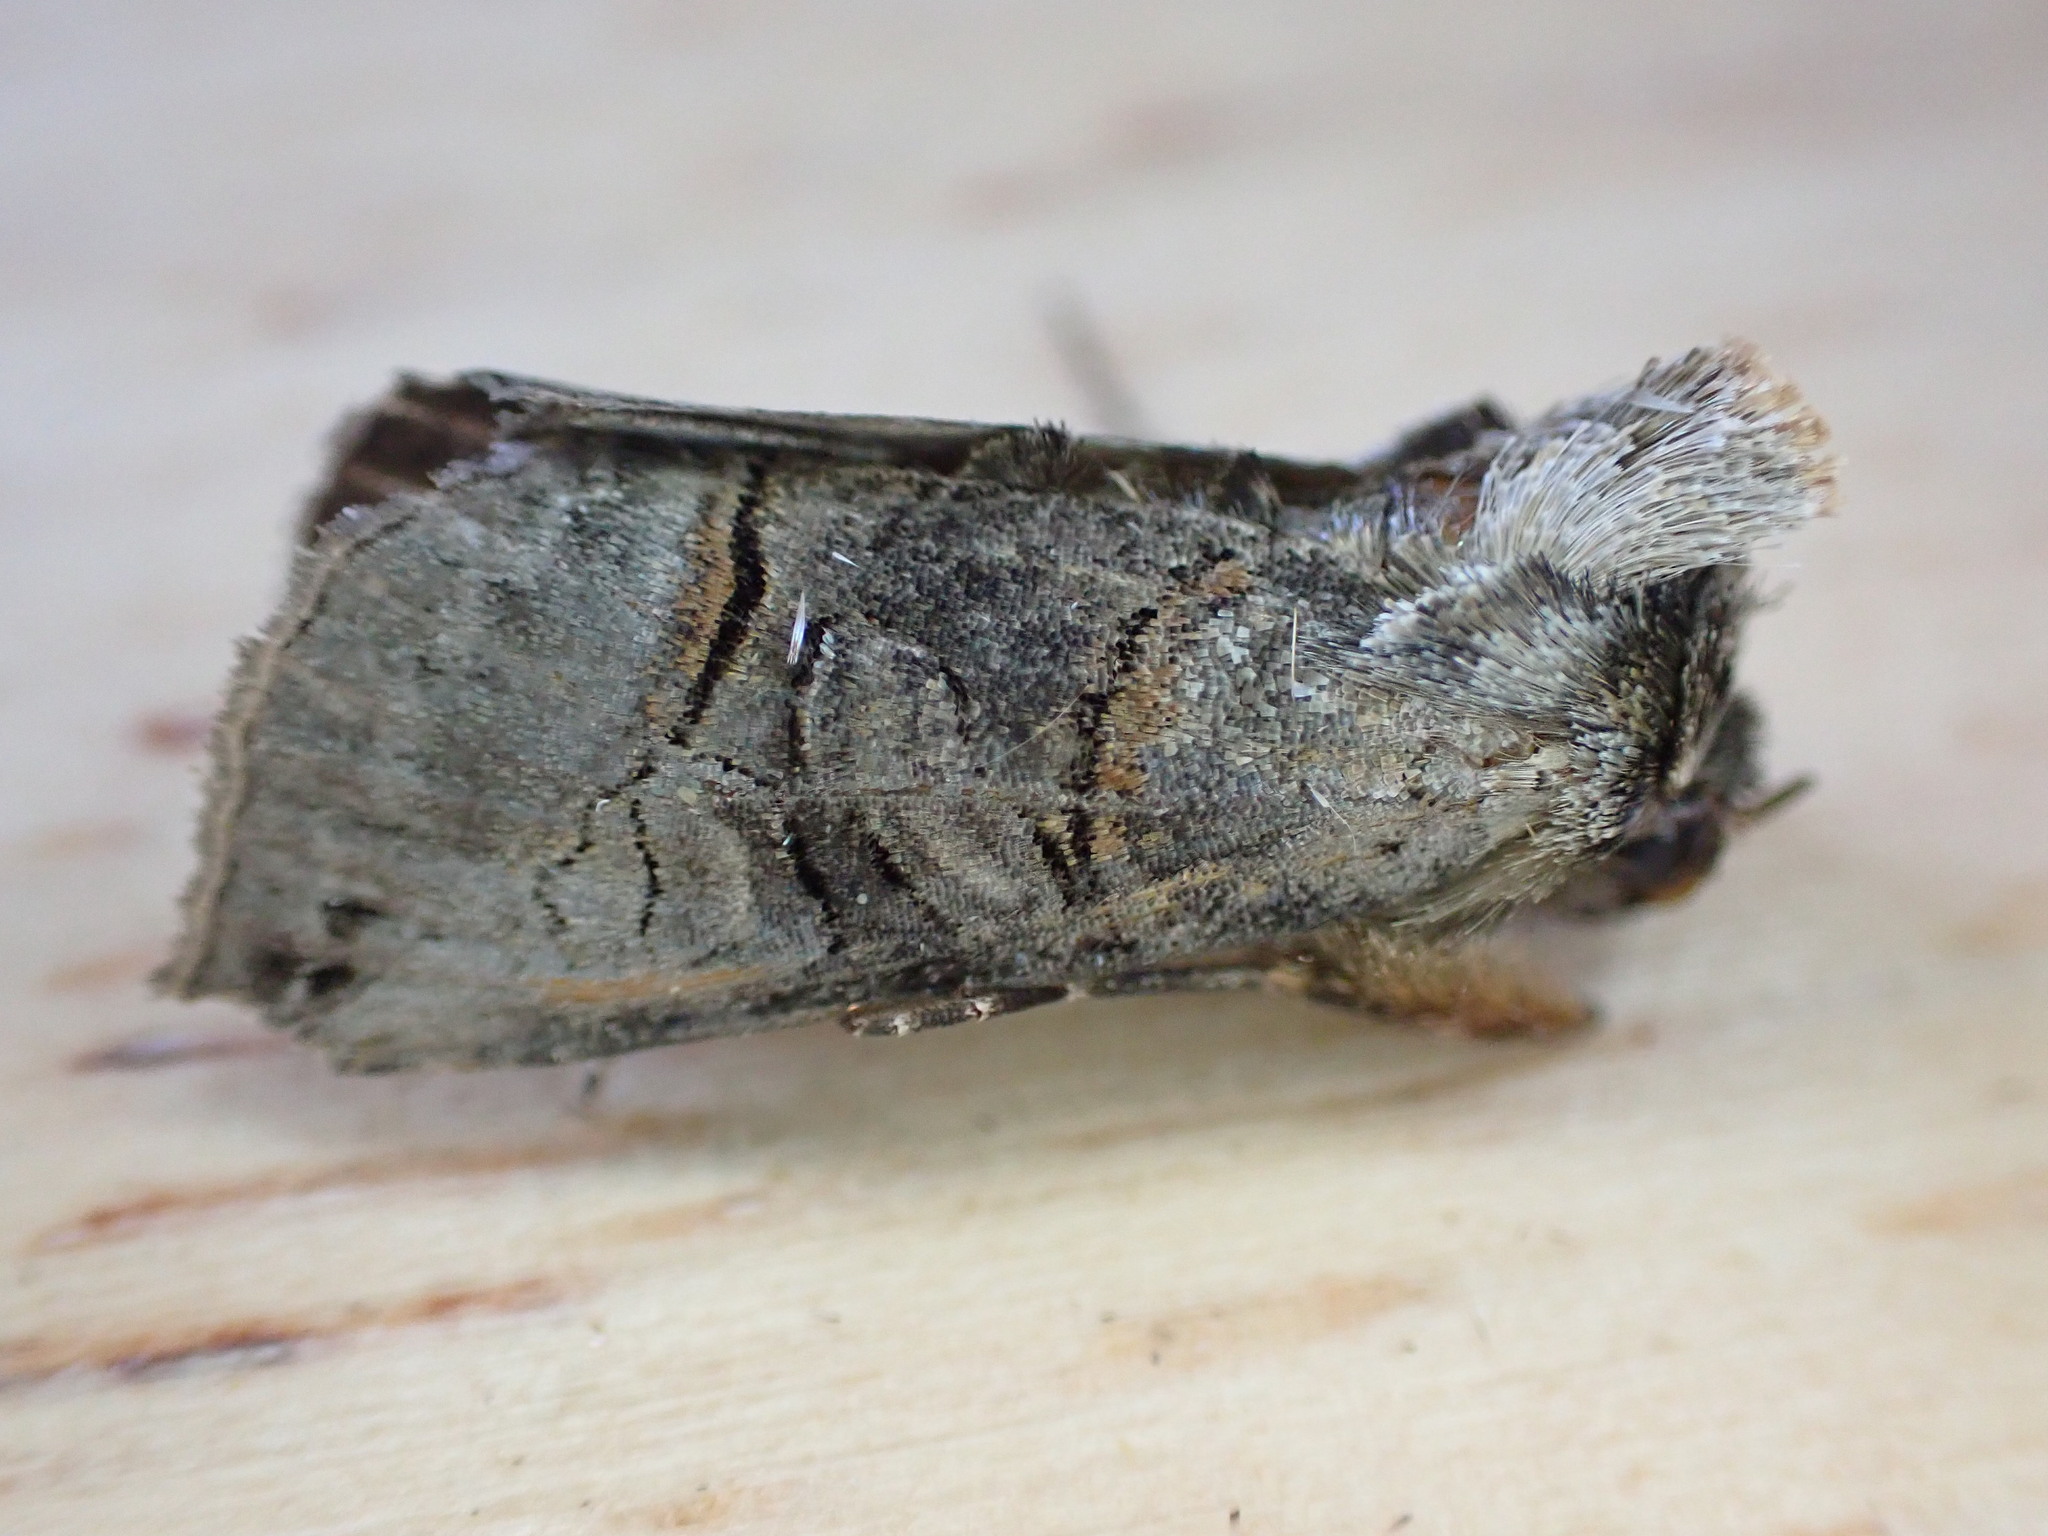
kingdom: Animalia
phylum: Arthropoda
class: Insecta
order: Lepidoptera
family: Noctuidae
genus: Abrostola
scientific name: Abrostola tripartita
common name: Spectacle
